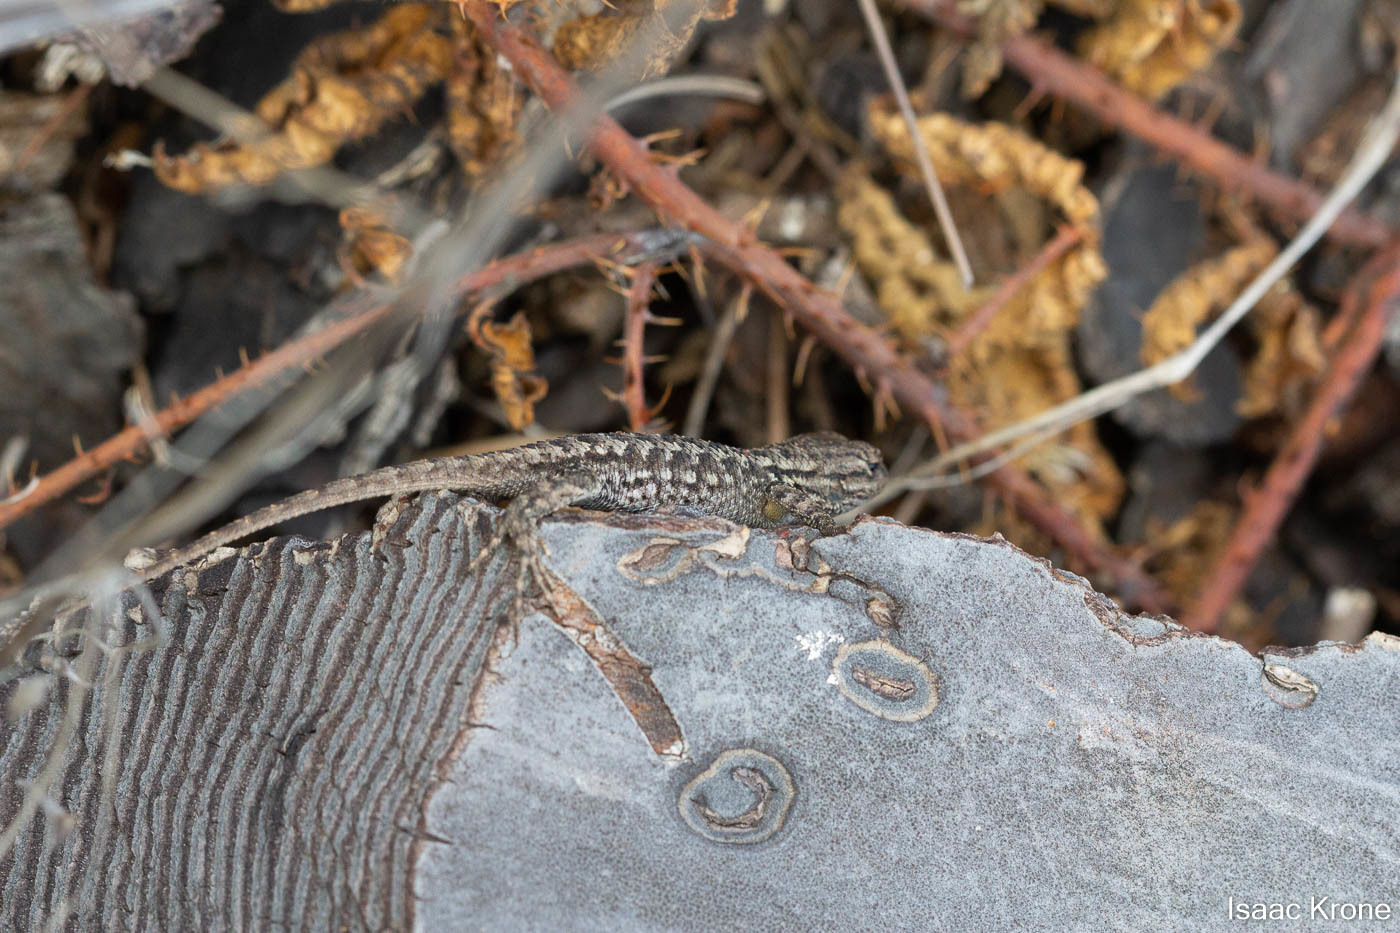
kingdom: Animalia
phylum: Chordata
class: Squamata
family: Phrynosomatidae
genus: Sceloporus
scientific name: Sceloporus occidentalis
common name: Western fence lizard
